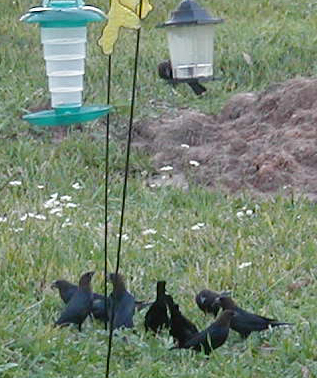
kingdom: Animalia
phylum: Chordata
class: Aves
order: Passeriformes
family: Icteridae
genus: Agelaius
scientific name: Agelaius phoeniceus
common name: Red-winged blackbird
